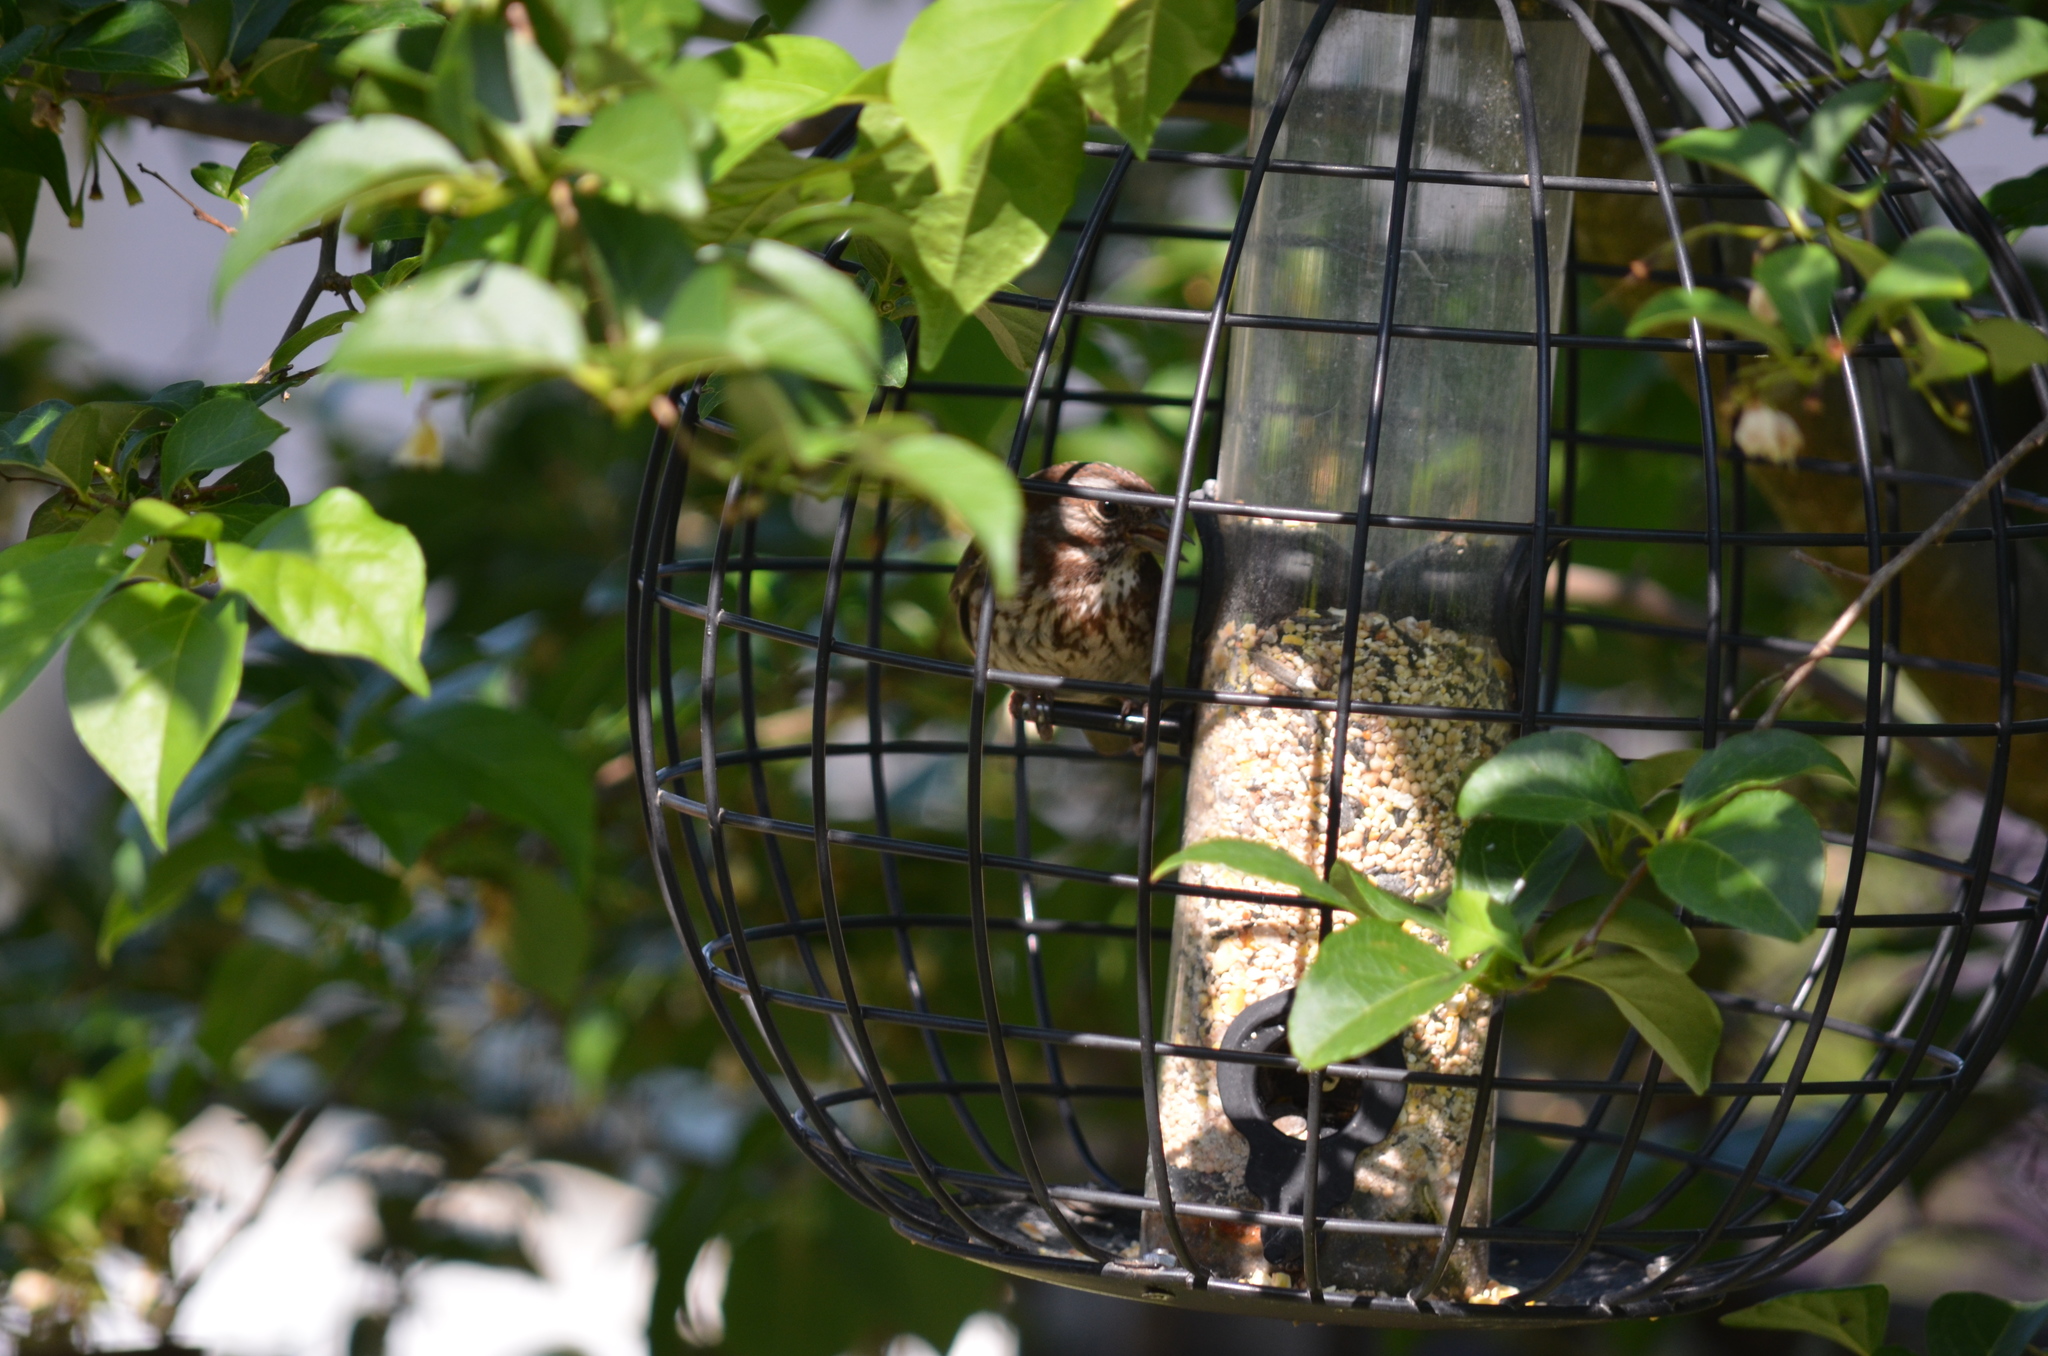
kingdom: Animalia
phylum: Chordata
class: Aves
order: Passeriformes
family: Passerellidae
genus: Melospiza
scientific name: Melospiza melodia
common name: Song sparrow
